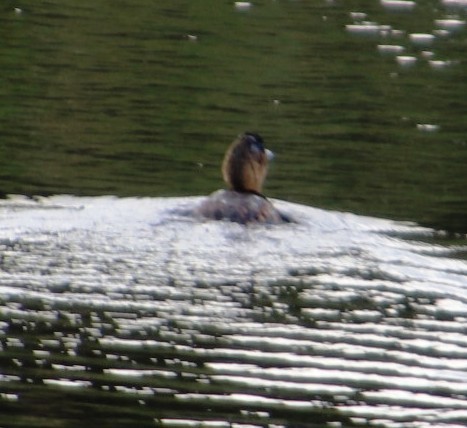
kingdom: Animalia
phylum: Chordata
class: Aves
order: Podicipediformes
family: Podicipedidae
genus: Tachybaptus
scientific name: Tachybaptus ruficollis
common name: Little grebe
